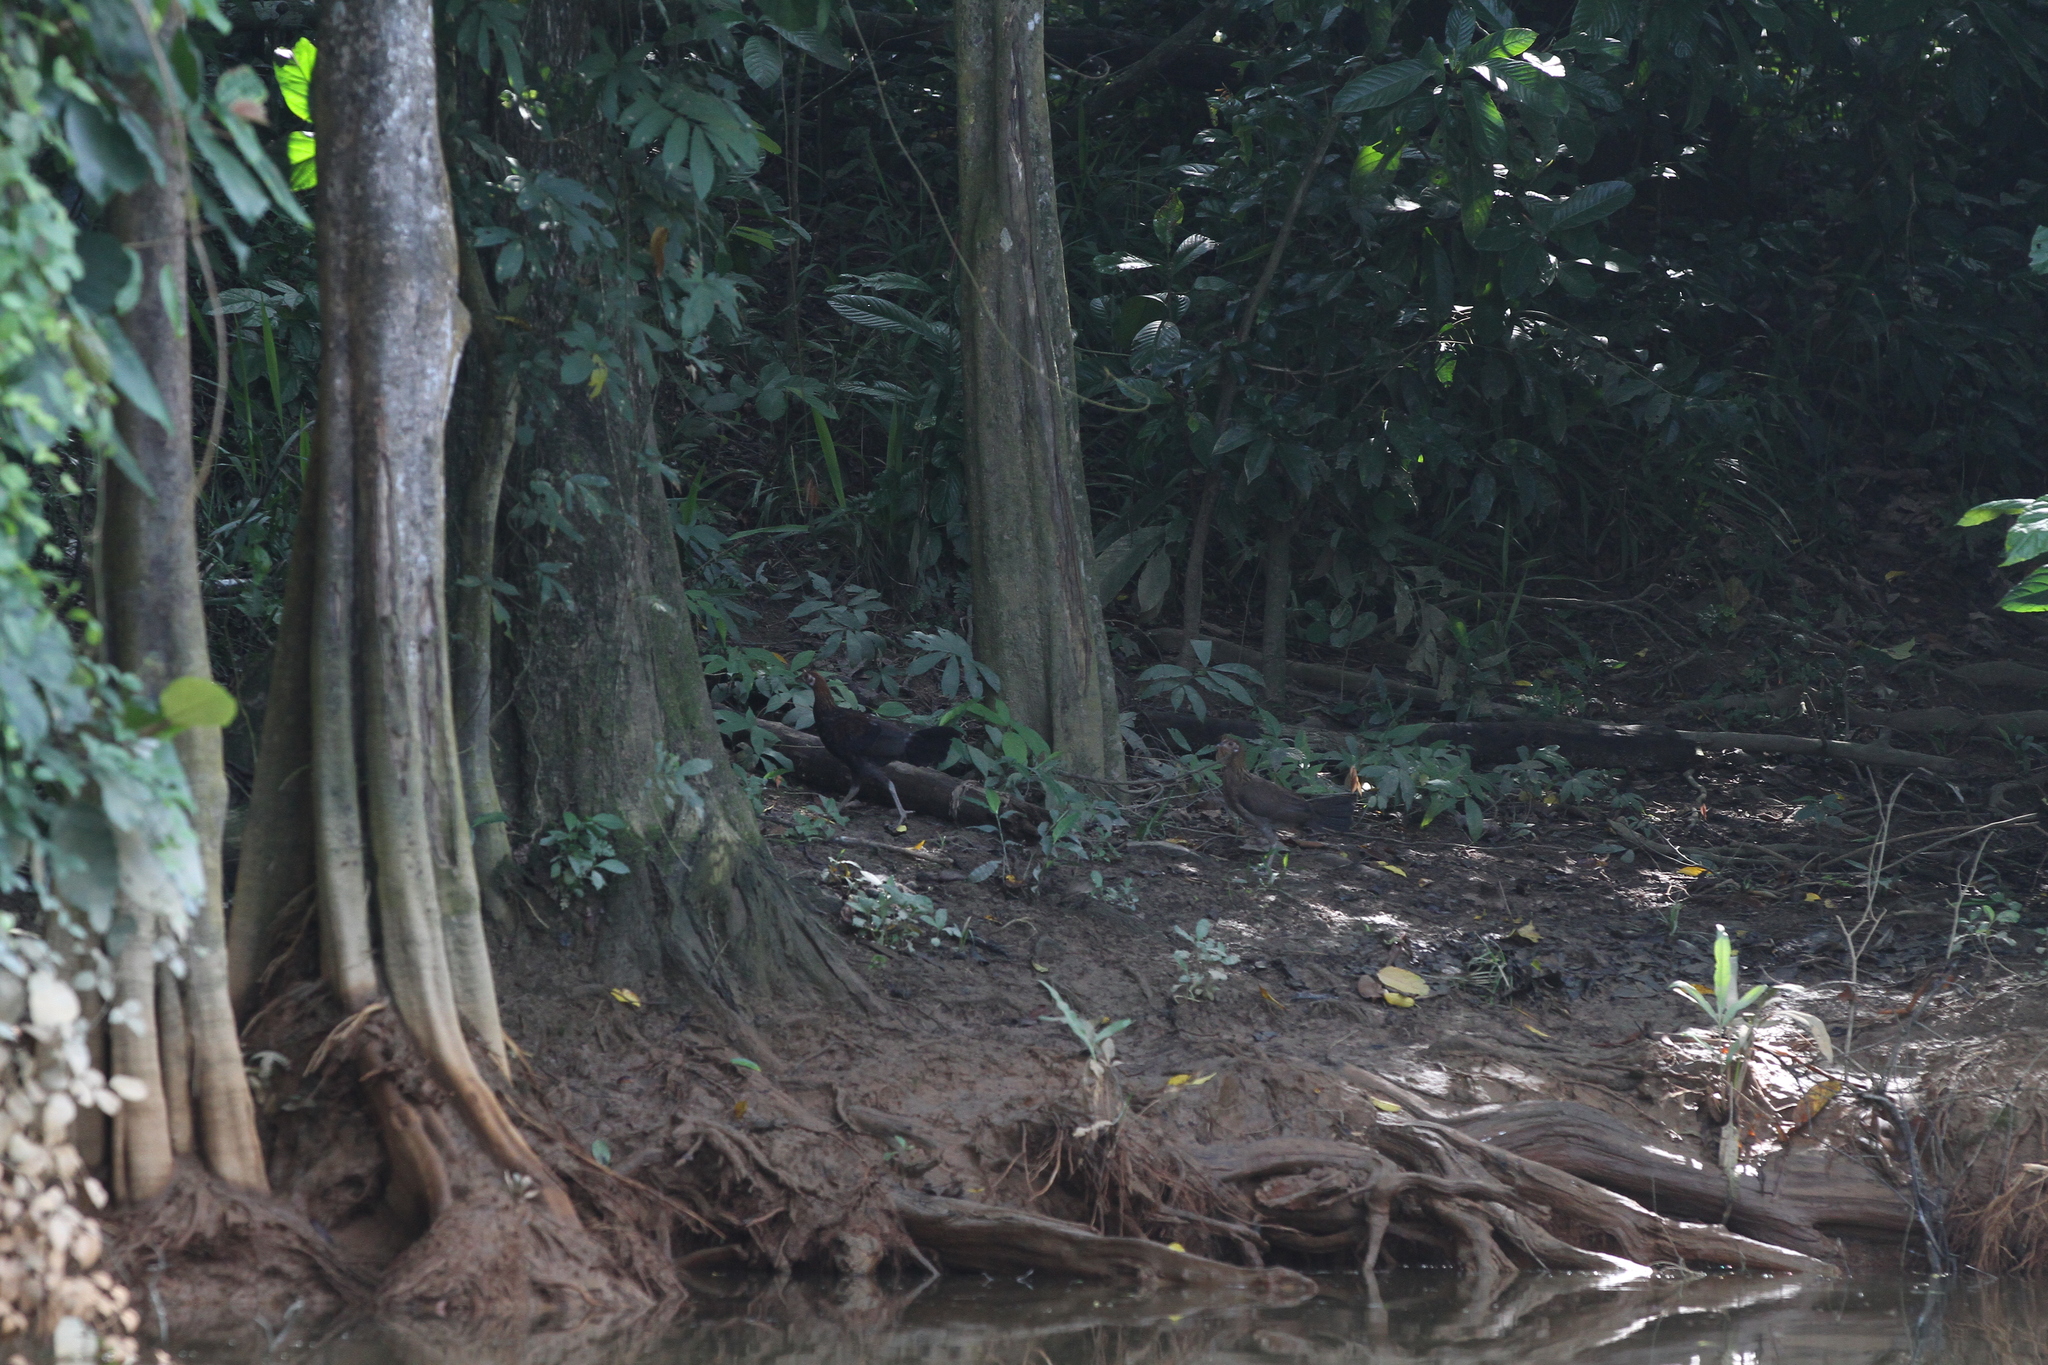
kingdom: Animalia
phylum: Chordata
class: Aves
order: Galliformes
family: Phasianidae
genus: Gallus
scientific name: Gallus gallus
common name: Red junglefowl
